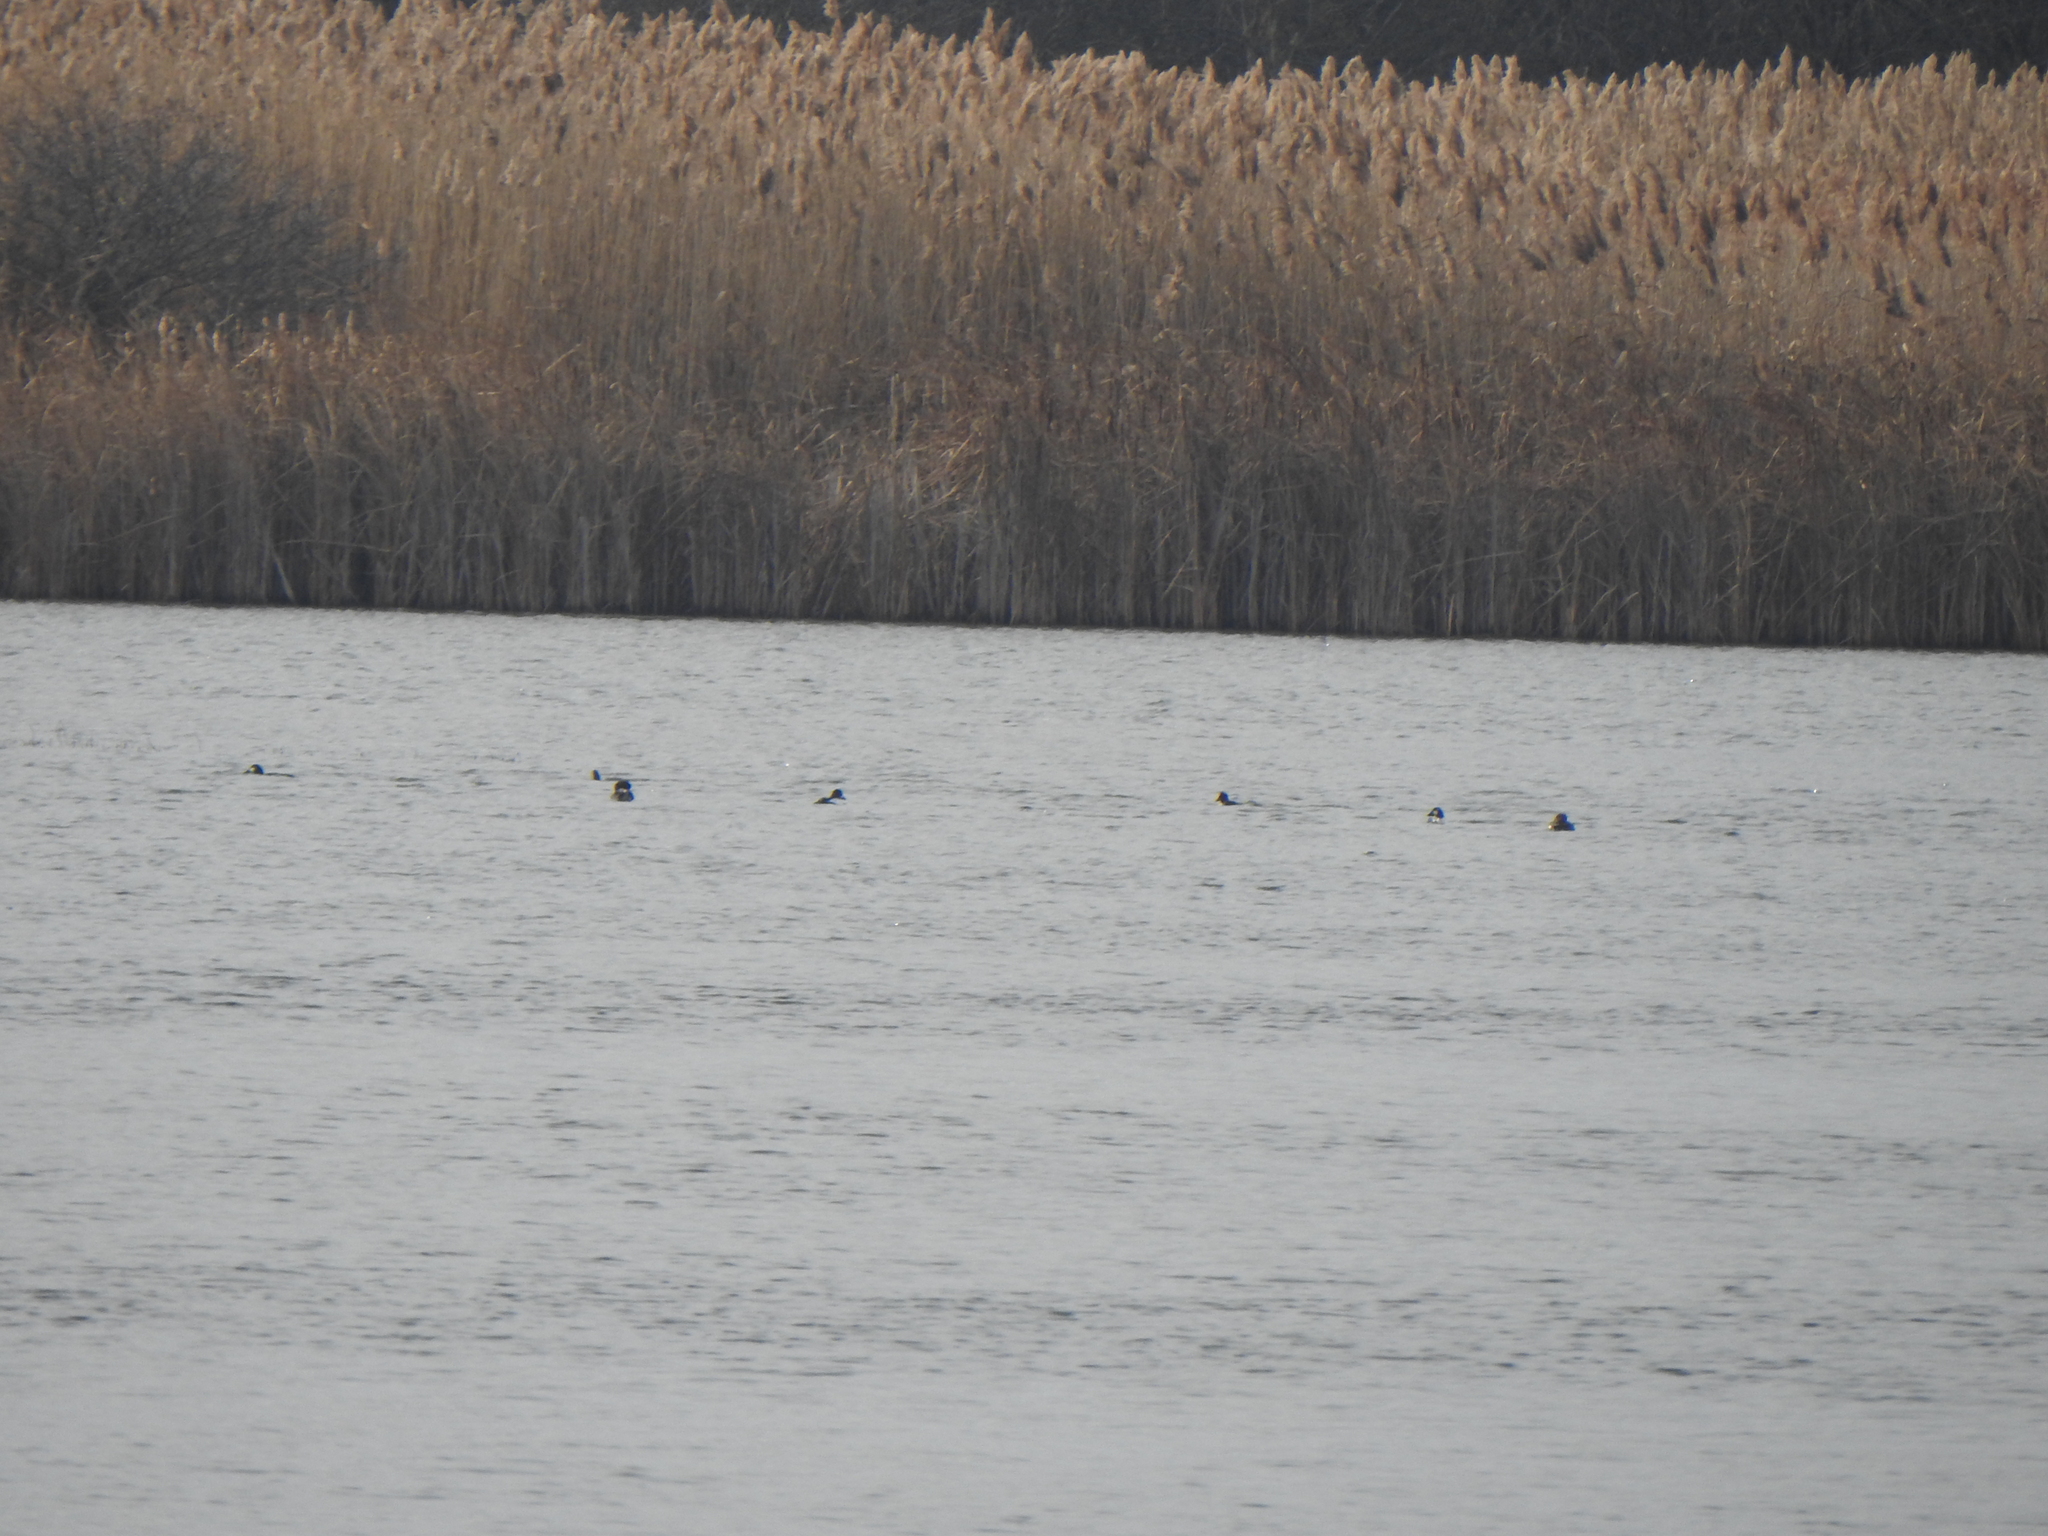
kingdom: Animalia
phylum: Chordata
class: Aves
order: Anseriformes
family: Anatidae
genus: Bucephala
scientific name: Bucephala clangula
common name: Common goldeneye
